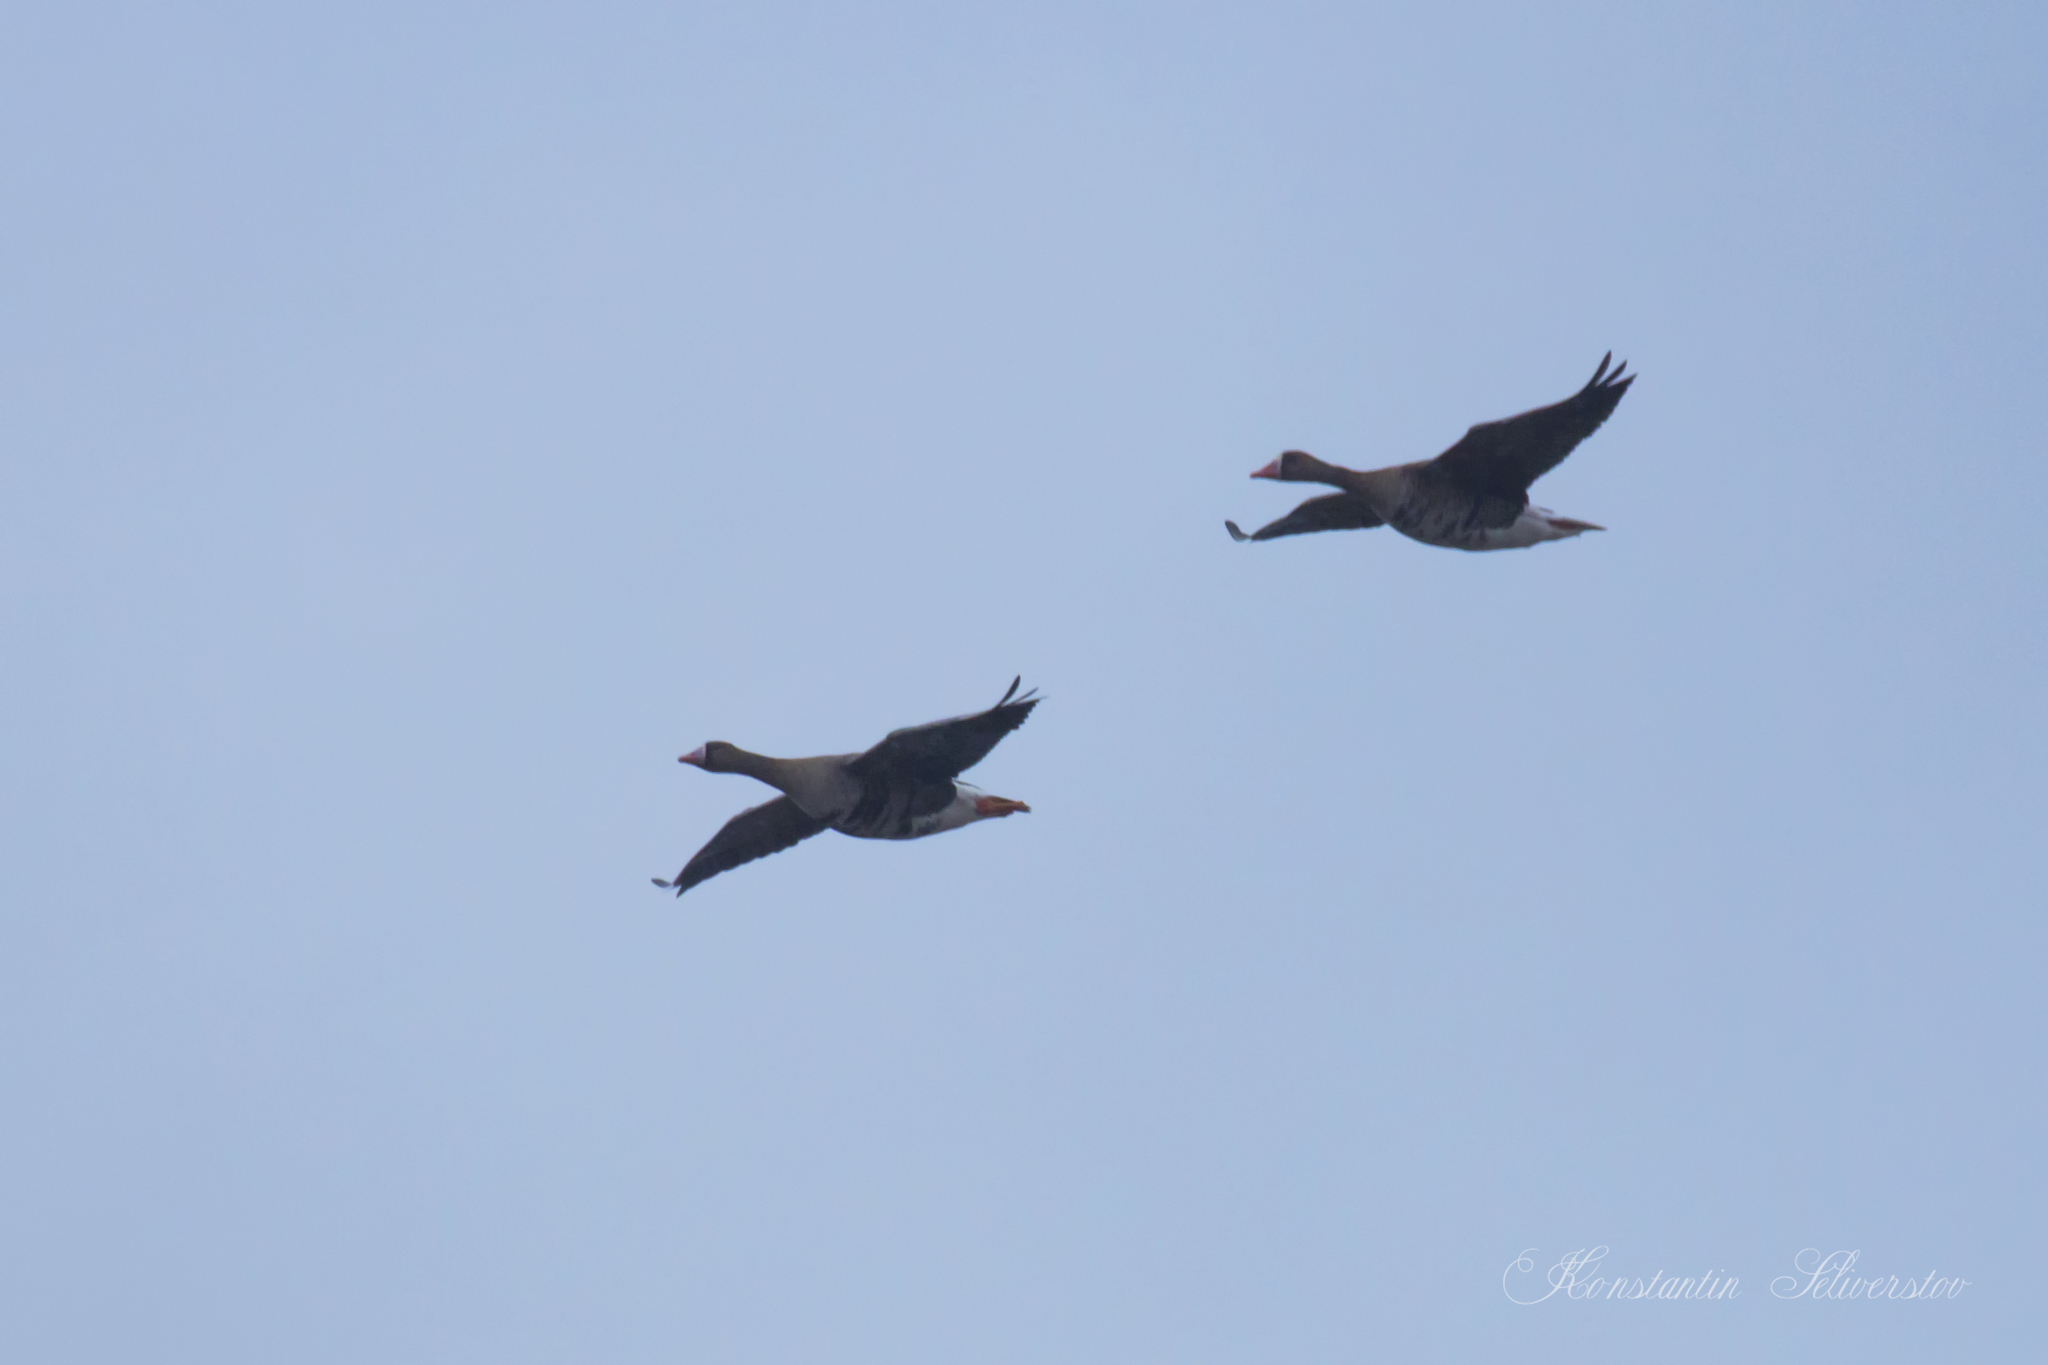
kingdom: Animalia
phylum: Chordata
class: Aves
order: Anseriformes
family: Anatidae
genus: Anser
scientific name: Anser albifrons
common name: Greater white-fronted goose
